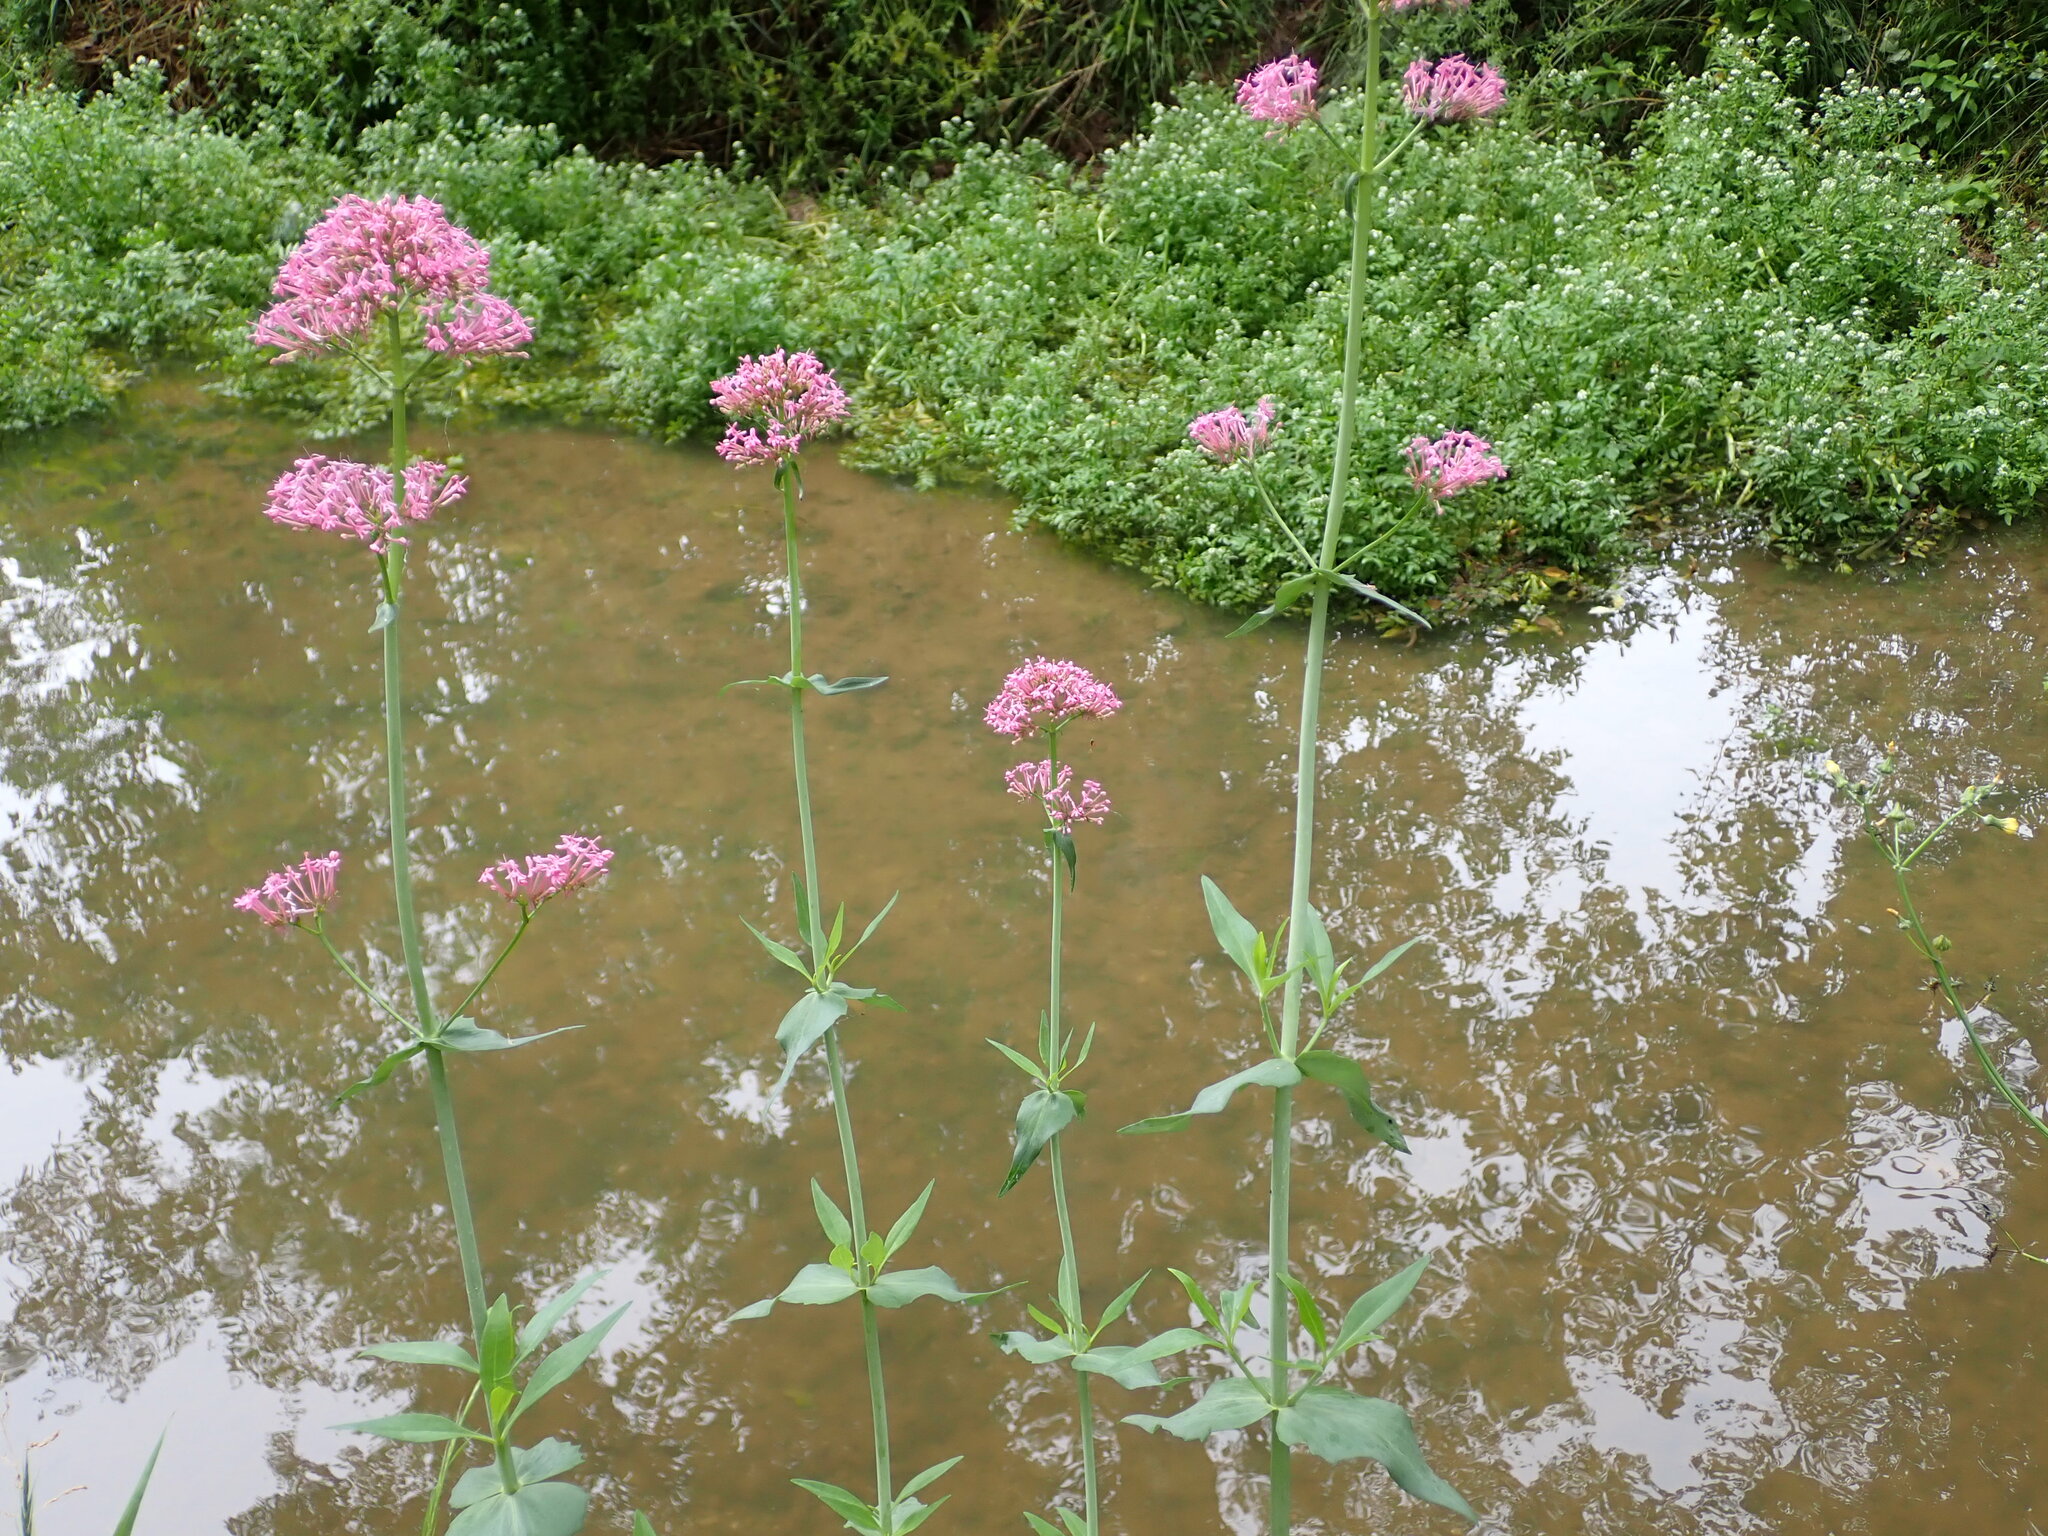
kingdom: Plantae
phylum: Tracheophyta
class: Magnoliopsida
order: Dipsacales
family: Caprifoliaceae
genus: Centranthus
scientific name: Centranthus ruber
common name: Red valerian
